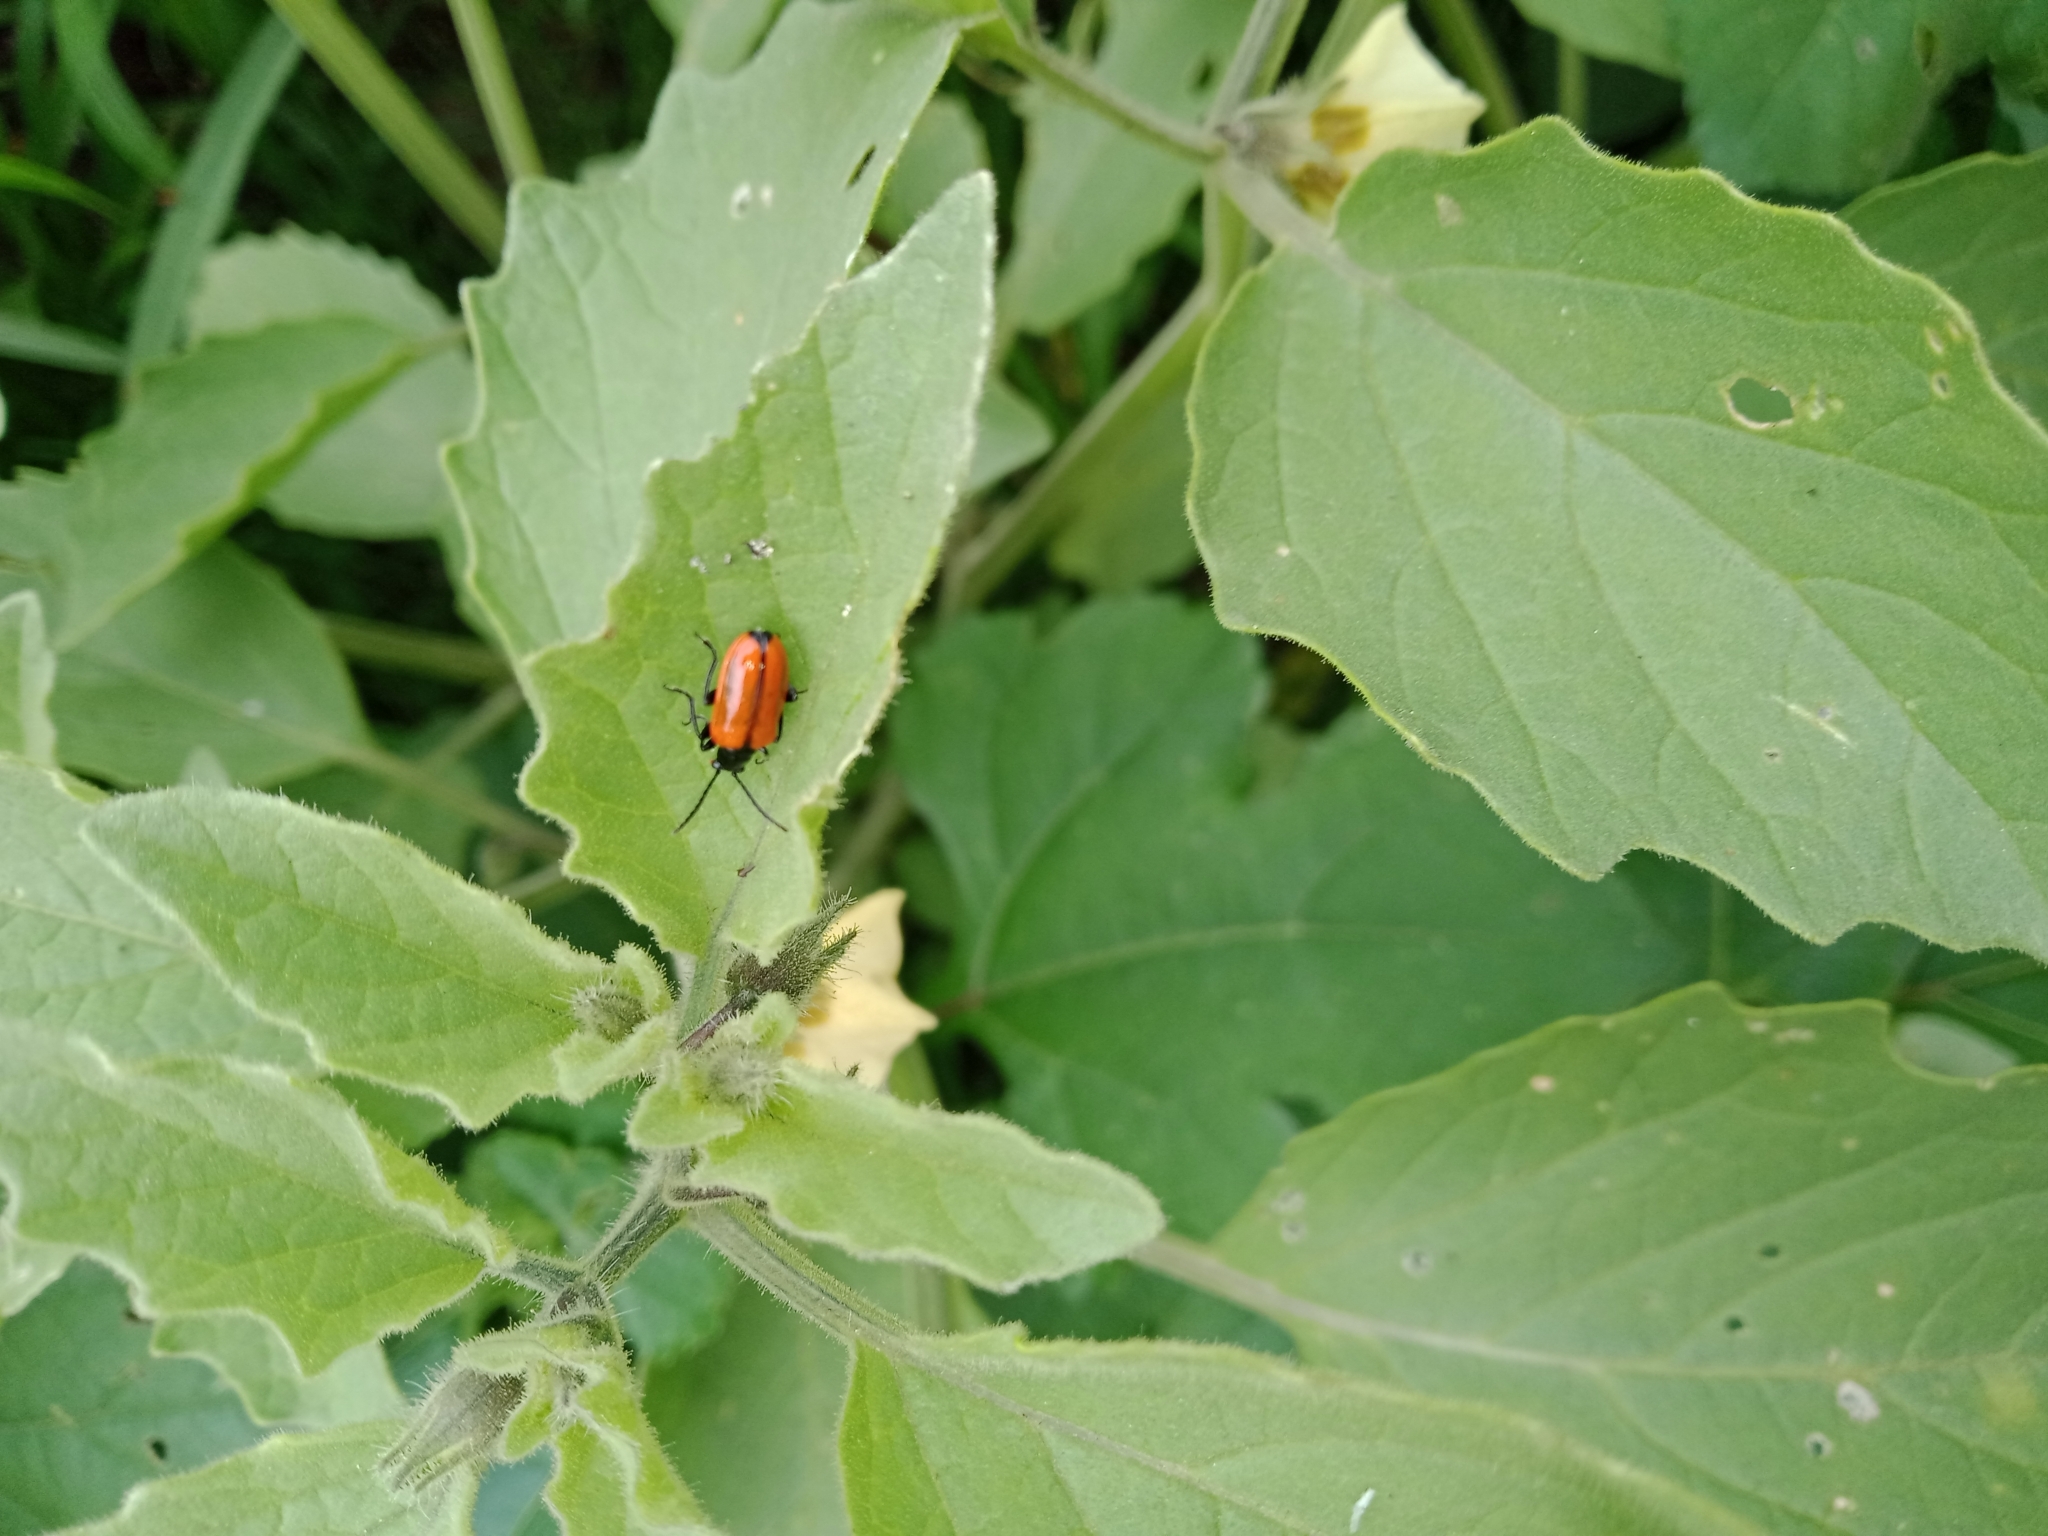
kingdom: Animalia
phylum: Arthropoda
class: Insecta
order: Coleoptera
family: Chrysomelidae
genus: Lema
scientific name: Lema confusa
